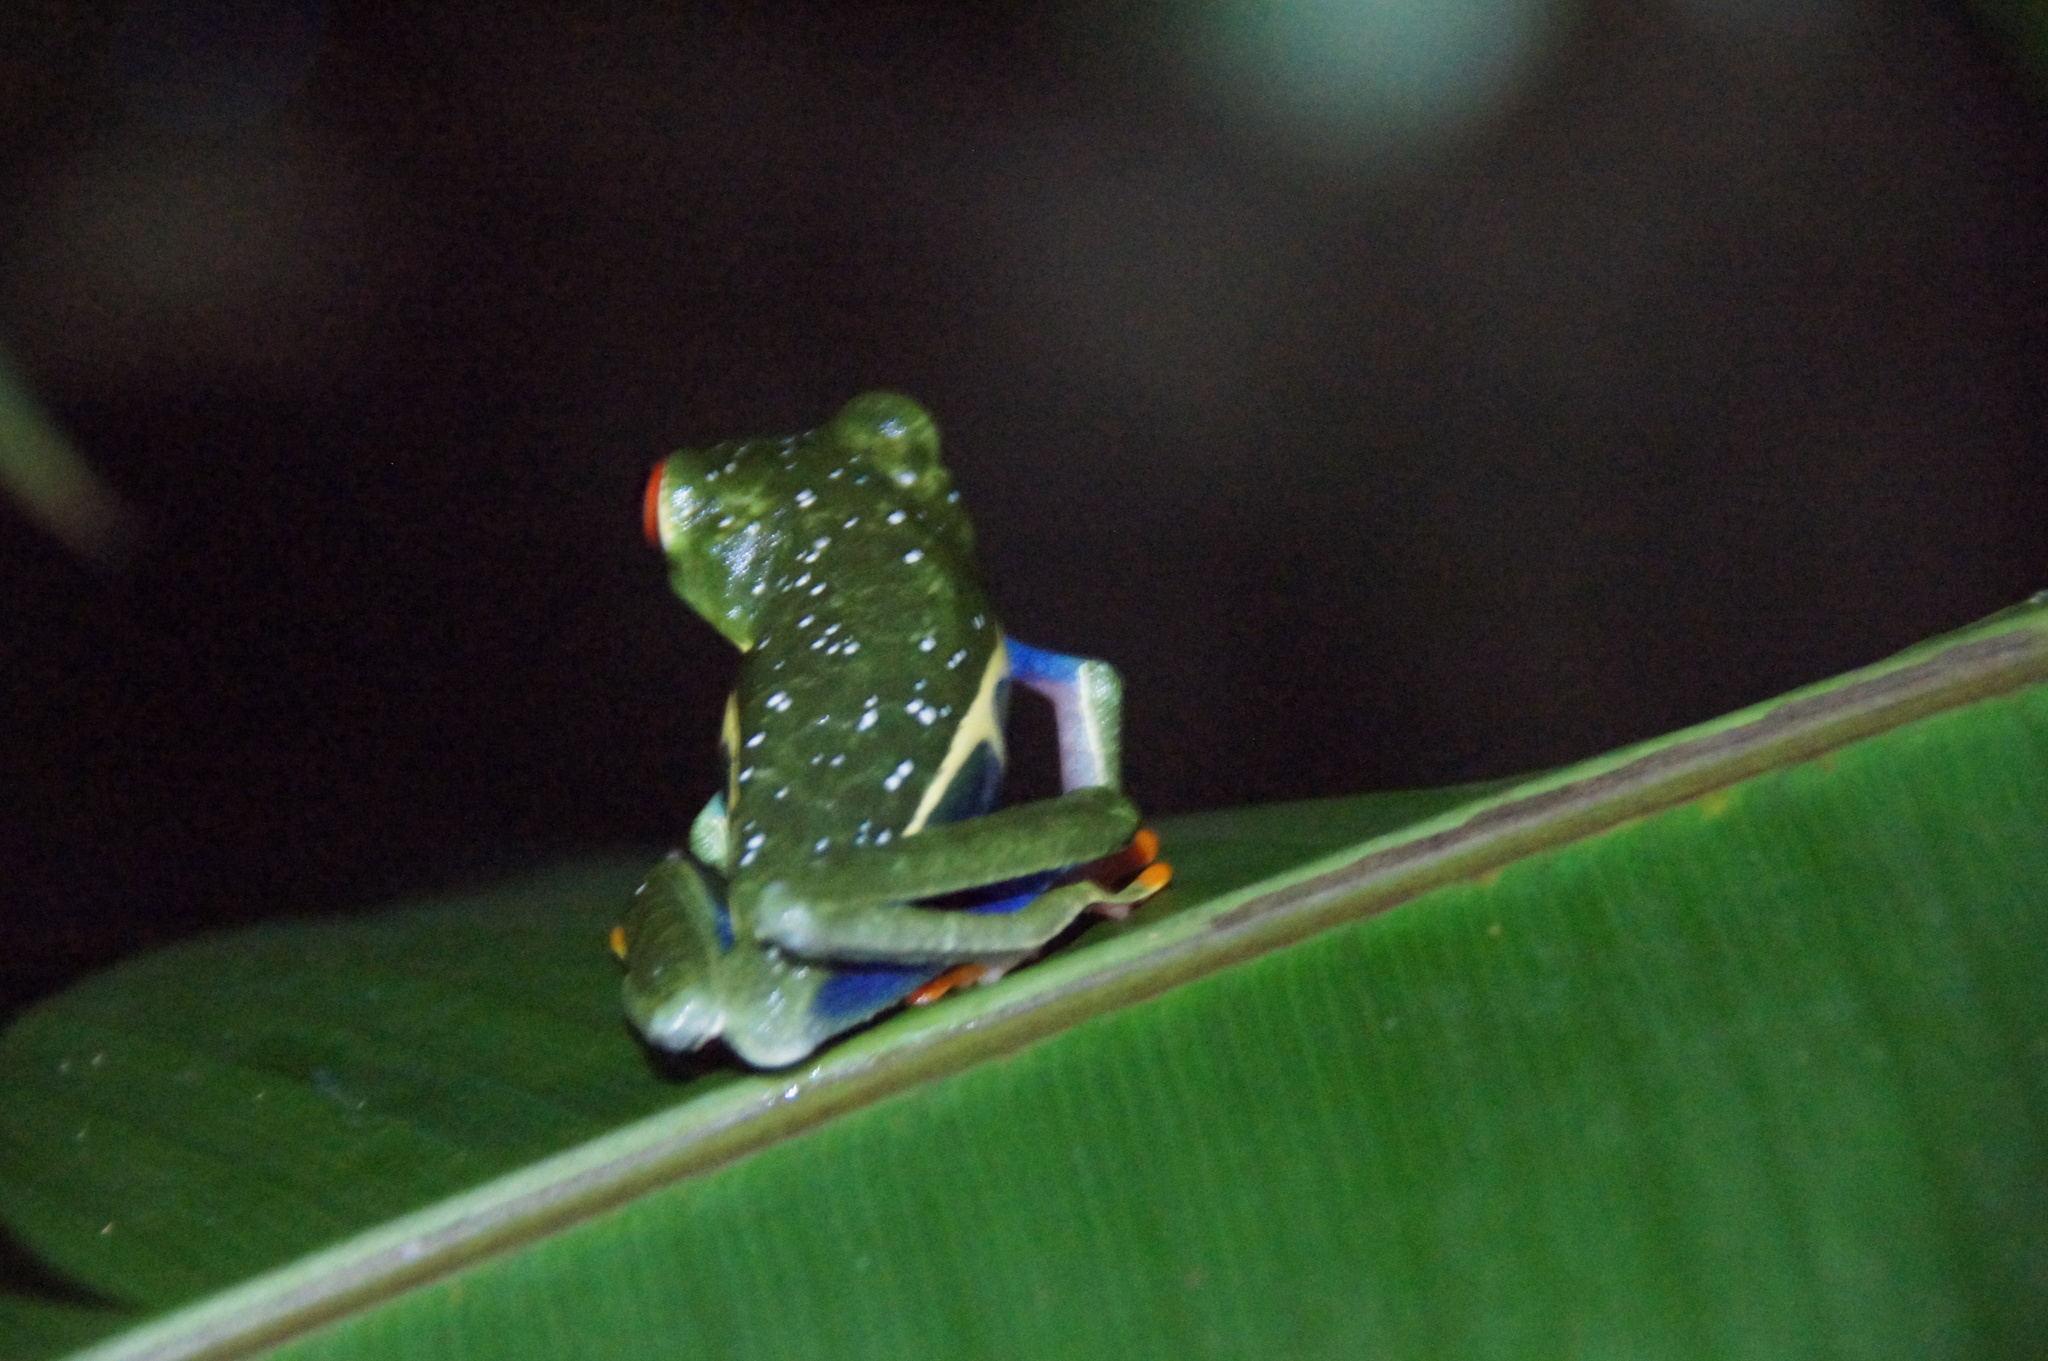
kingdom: Animalia
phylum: Chordata
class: Amphibia
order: Anura
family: Phyllomedusidae
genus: Agalychnis
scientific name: Agalychnis callidryas
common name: Red-eyed treefrog
